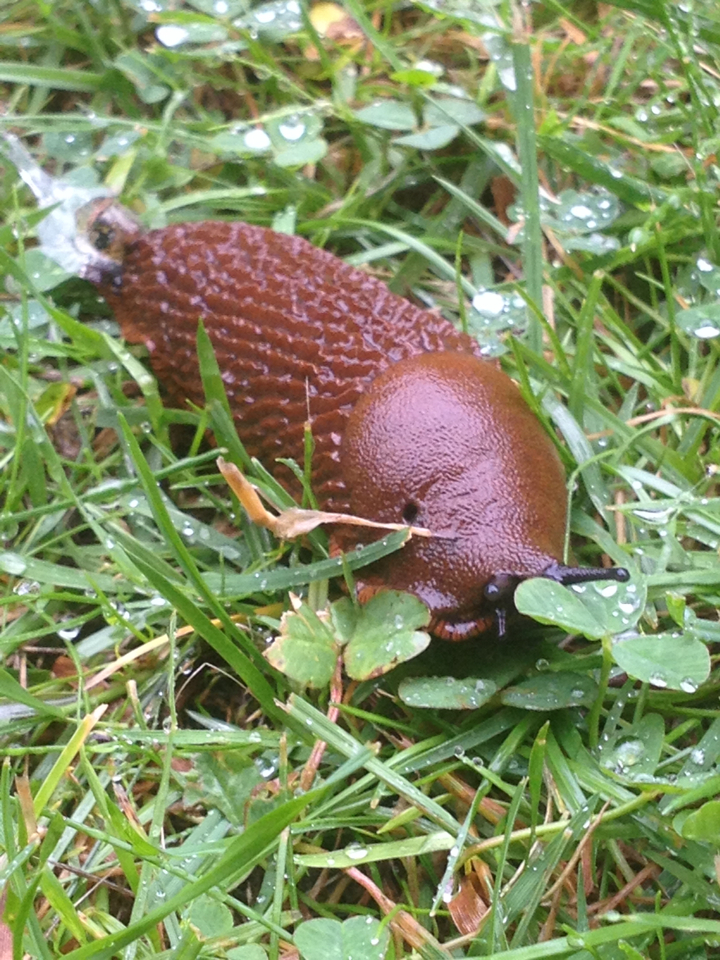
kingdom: Animalia
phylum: Mollusca
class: Gastropoda
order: Stylommatophora
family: Arionidae
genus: Arion
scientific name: Arion vulgaris
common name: Lusitanian slug
